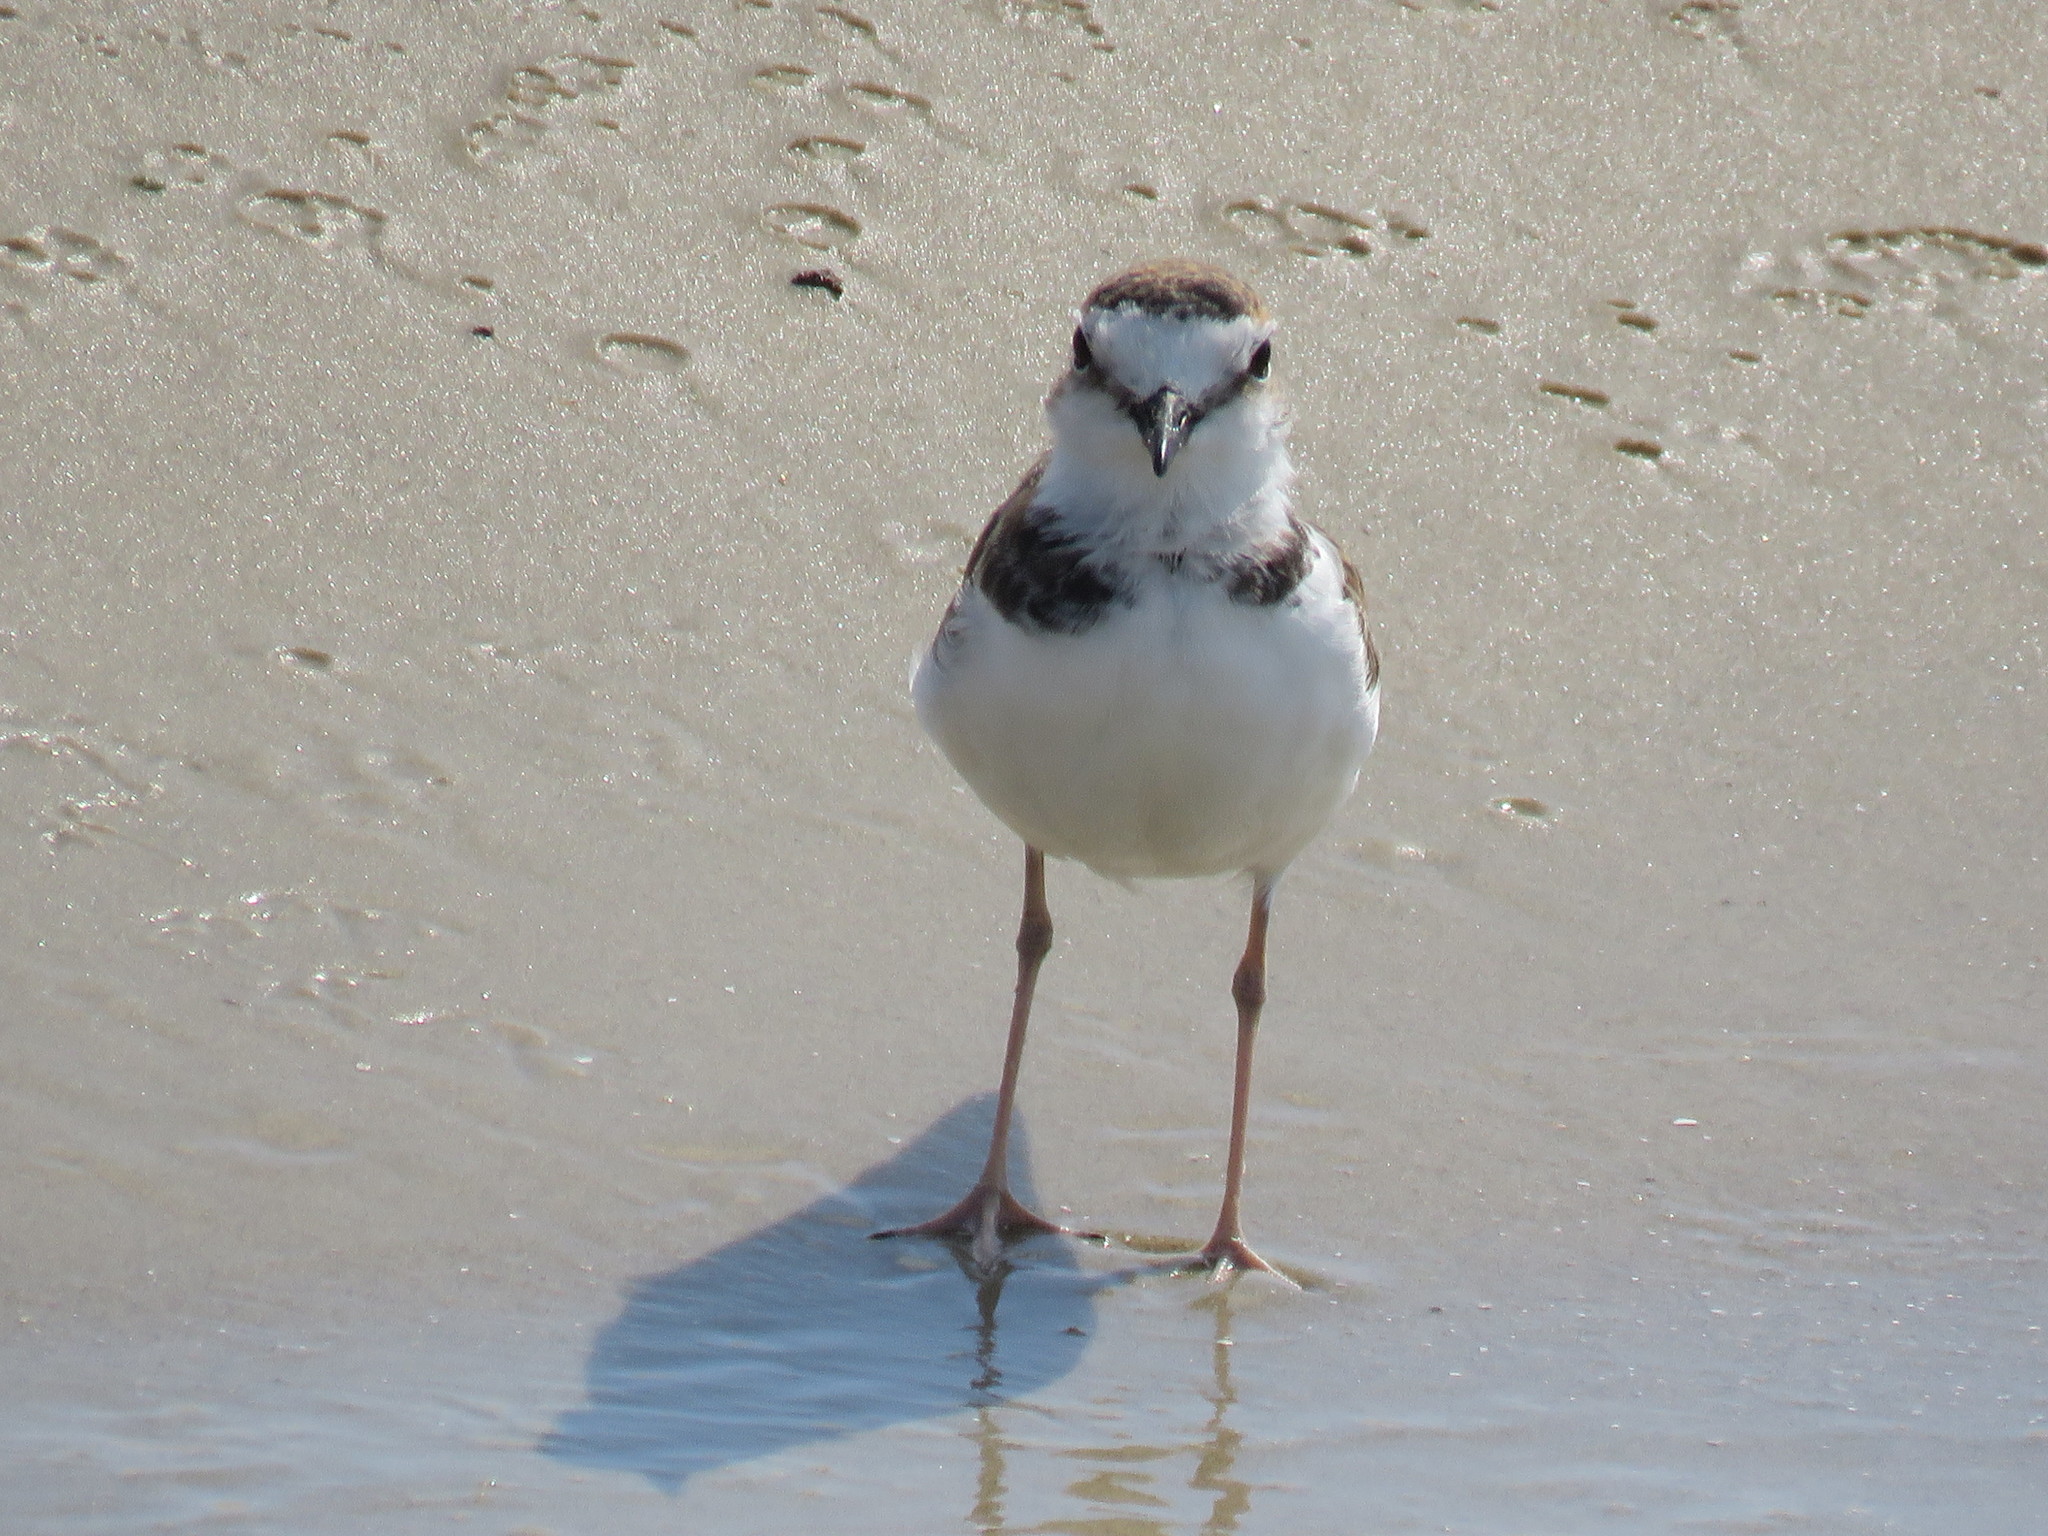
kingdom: Animalia
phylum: Chordata
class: Aves
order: Charadriiformes
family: Charadriidae
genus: Anarhynchus
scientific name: Anarhynchus
